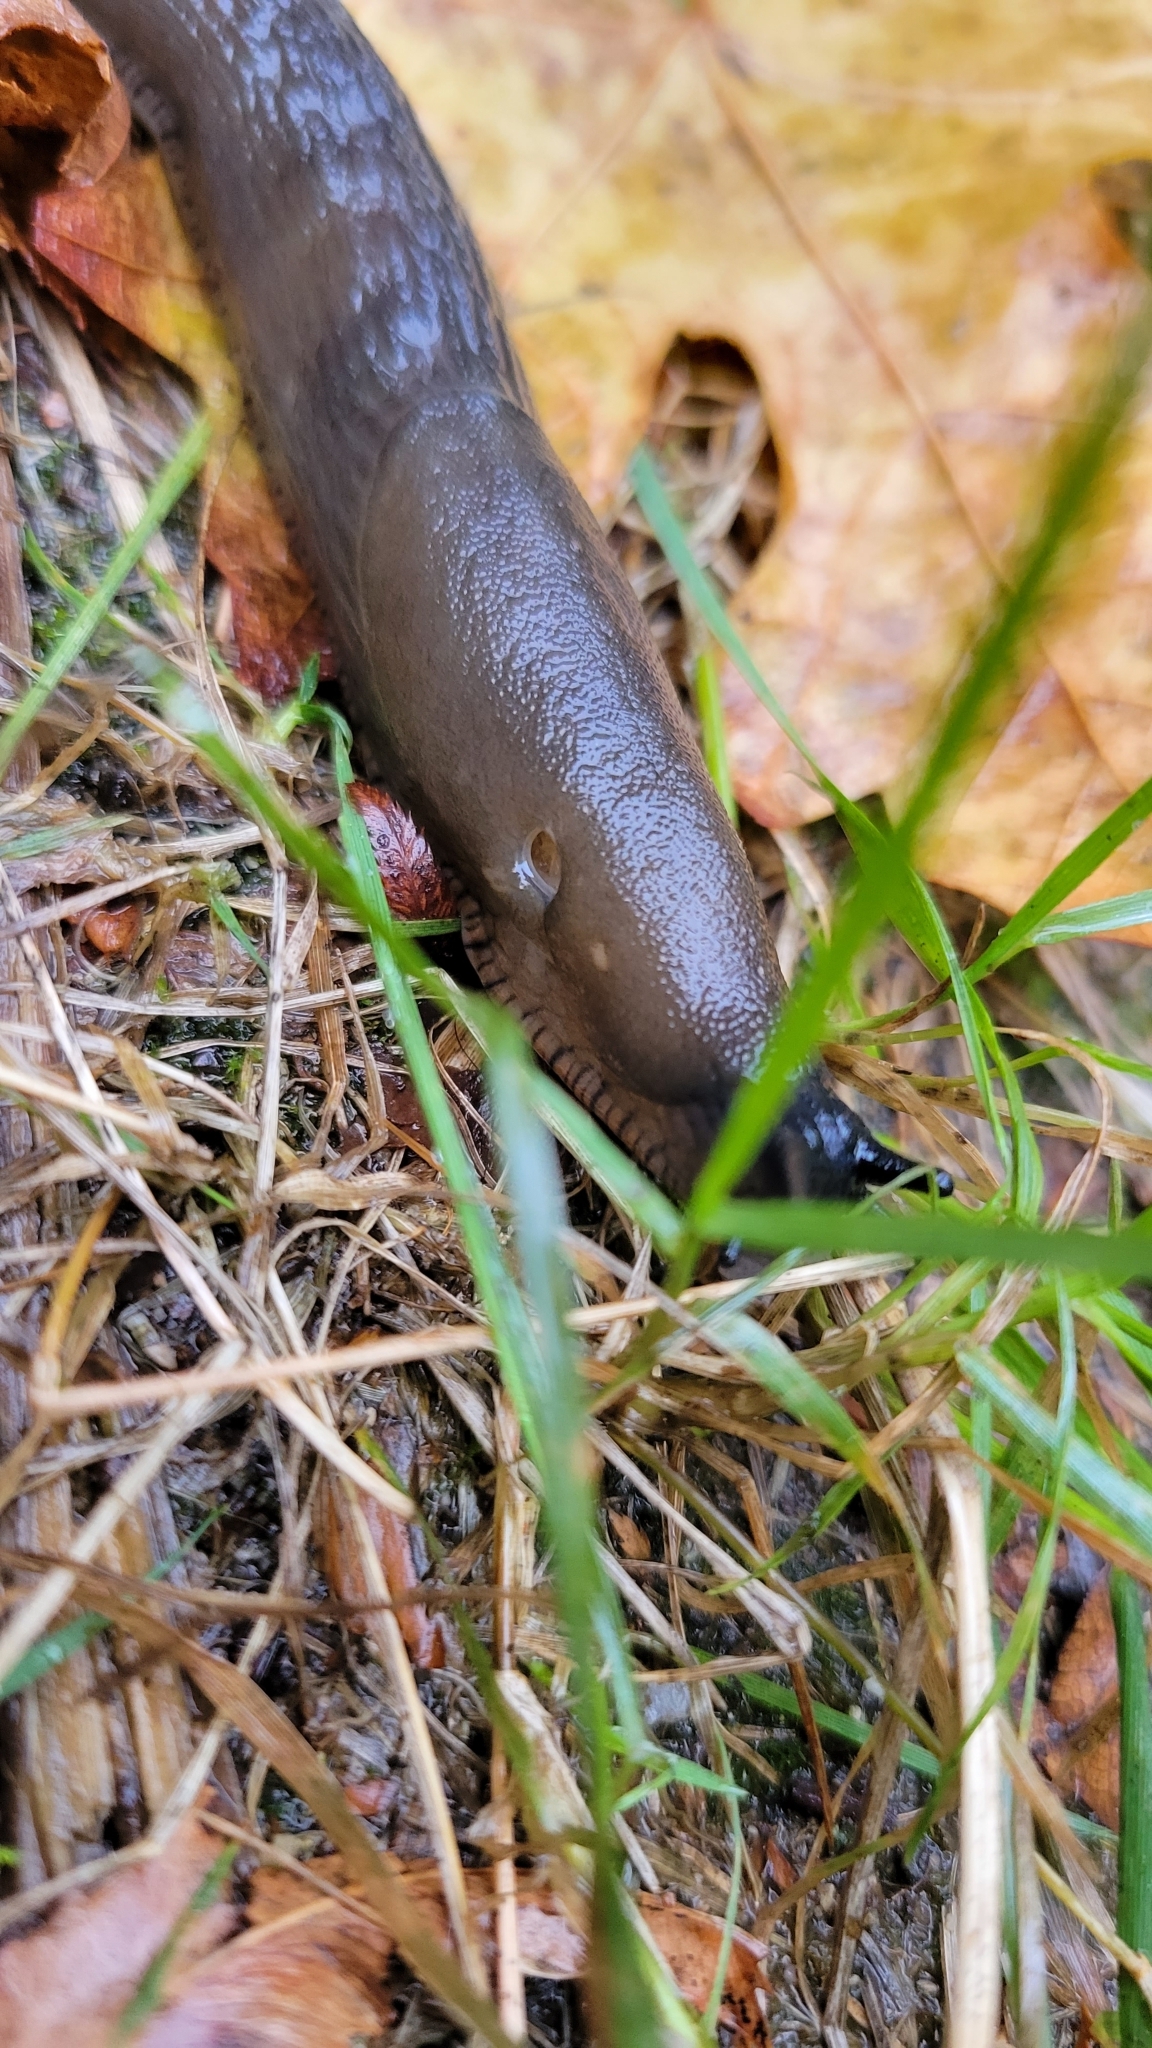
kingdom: Animalia
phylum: Mollusca
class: Gastropoda
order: Stylommatophora
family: Arionidae
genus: Arion
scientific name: Arion
